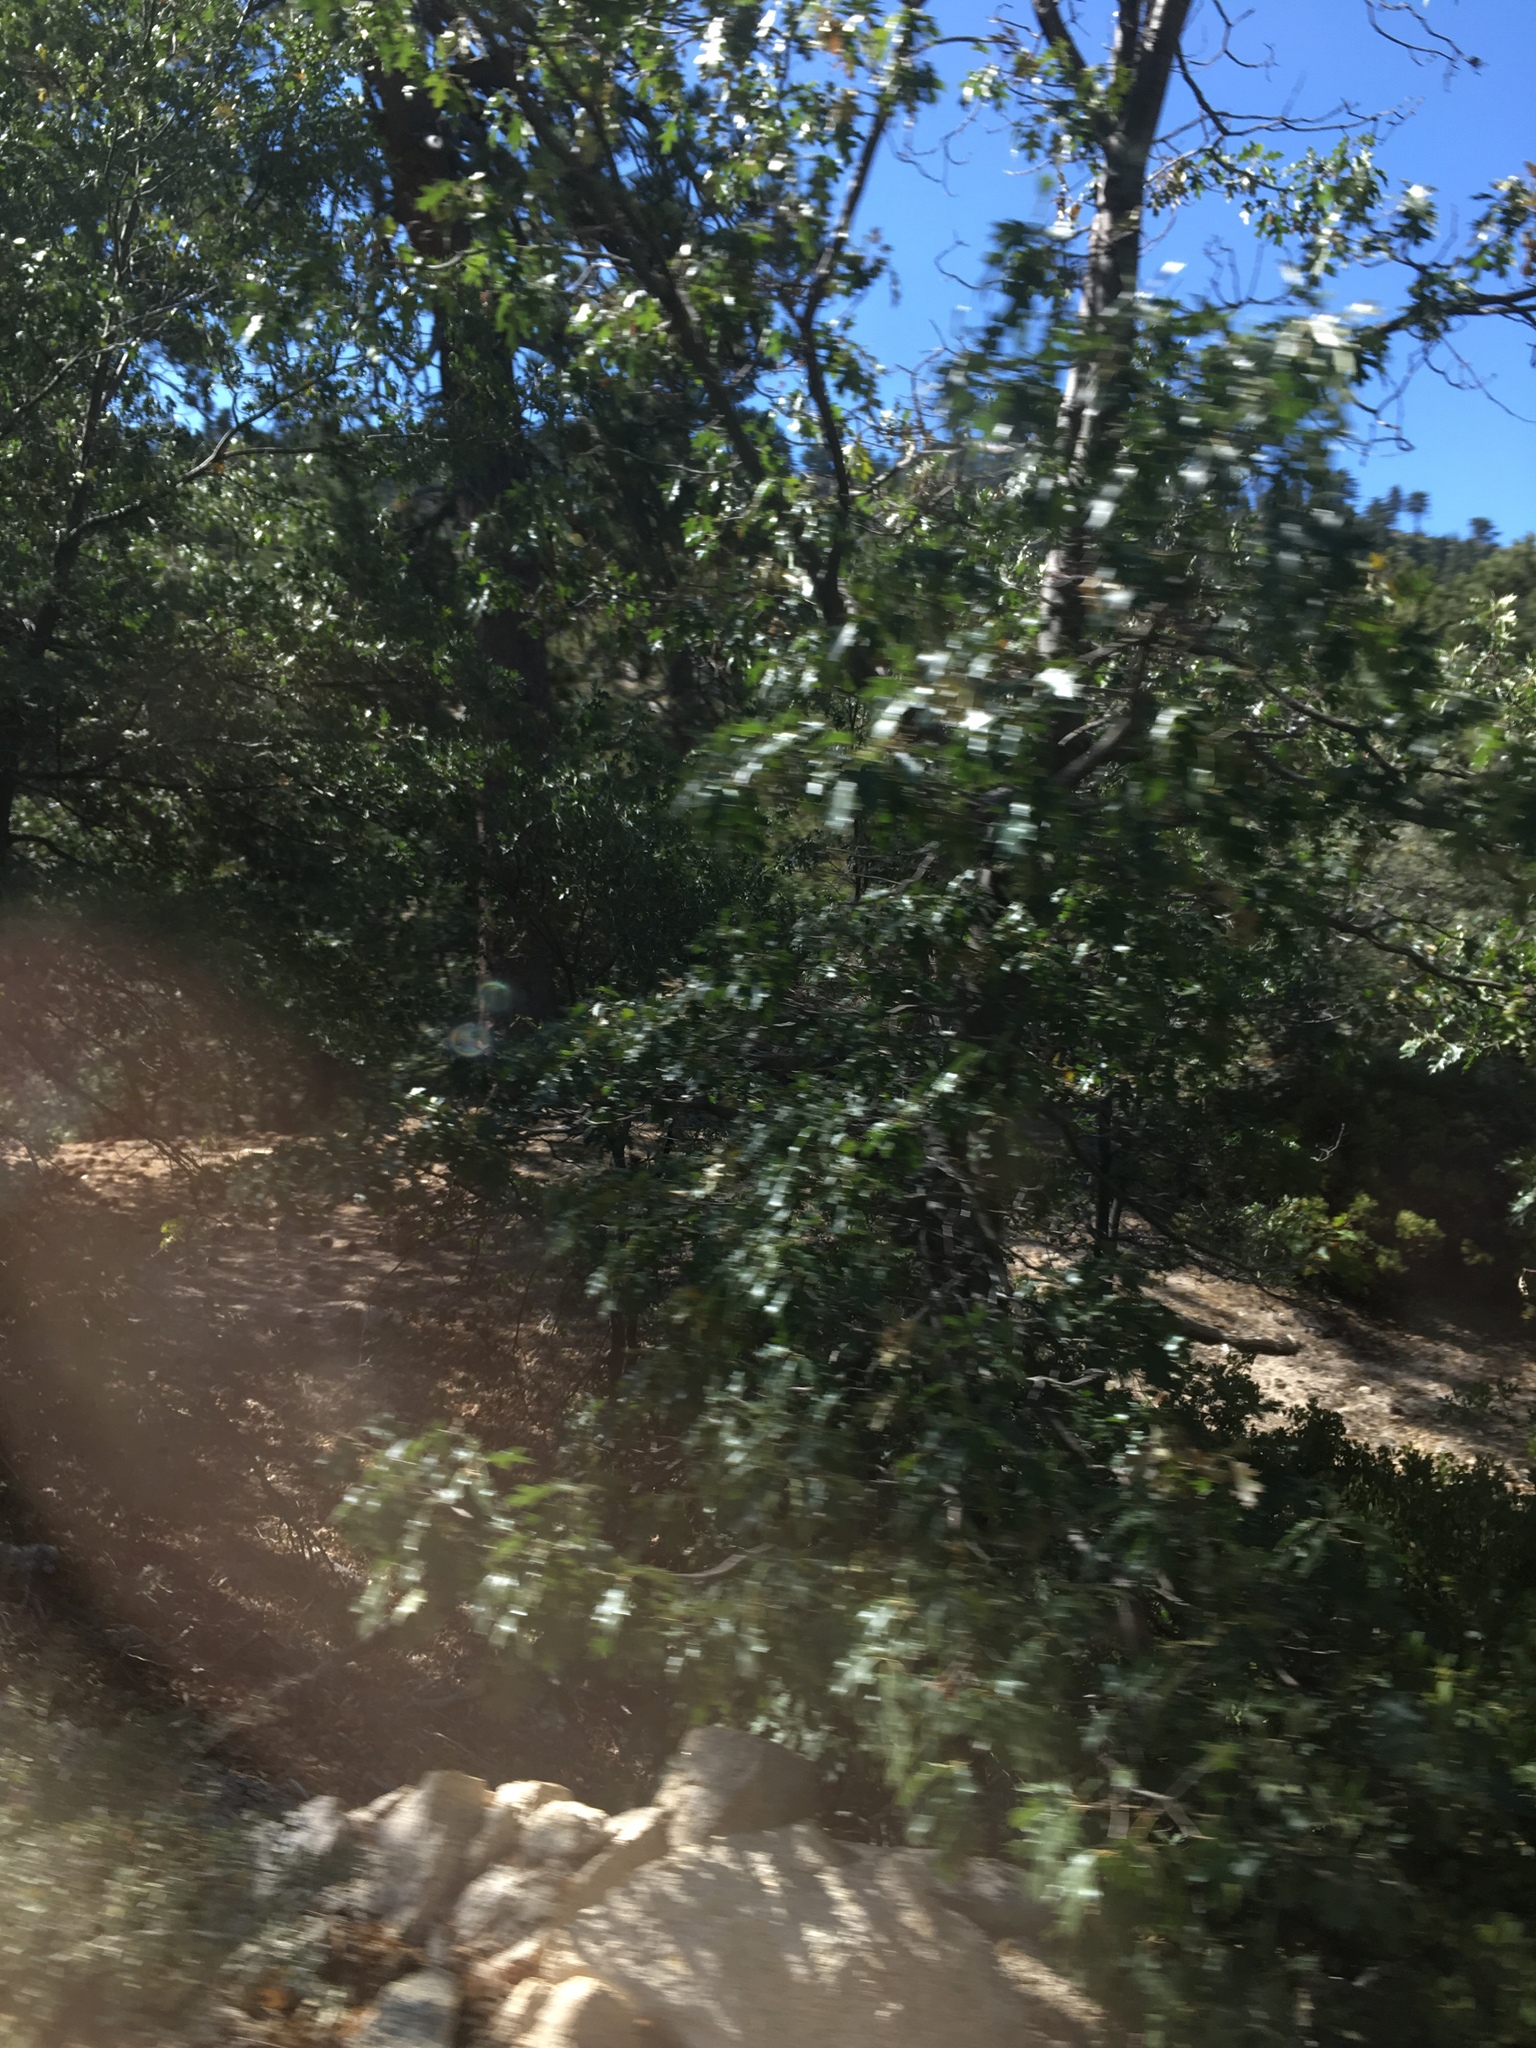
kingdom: Plantae
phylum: Tracheophyta
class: Magnoliopsida
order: Fagales
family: Fagaceae
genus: Quercus
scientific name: Quercus kelloggii
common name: California black oak
